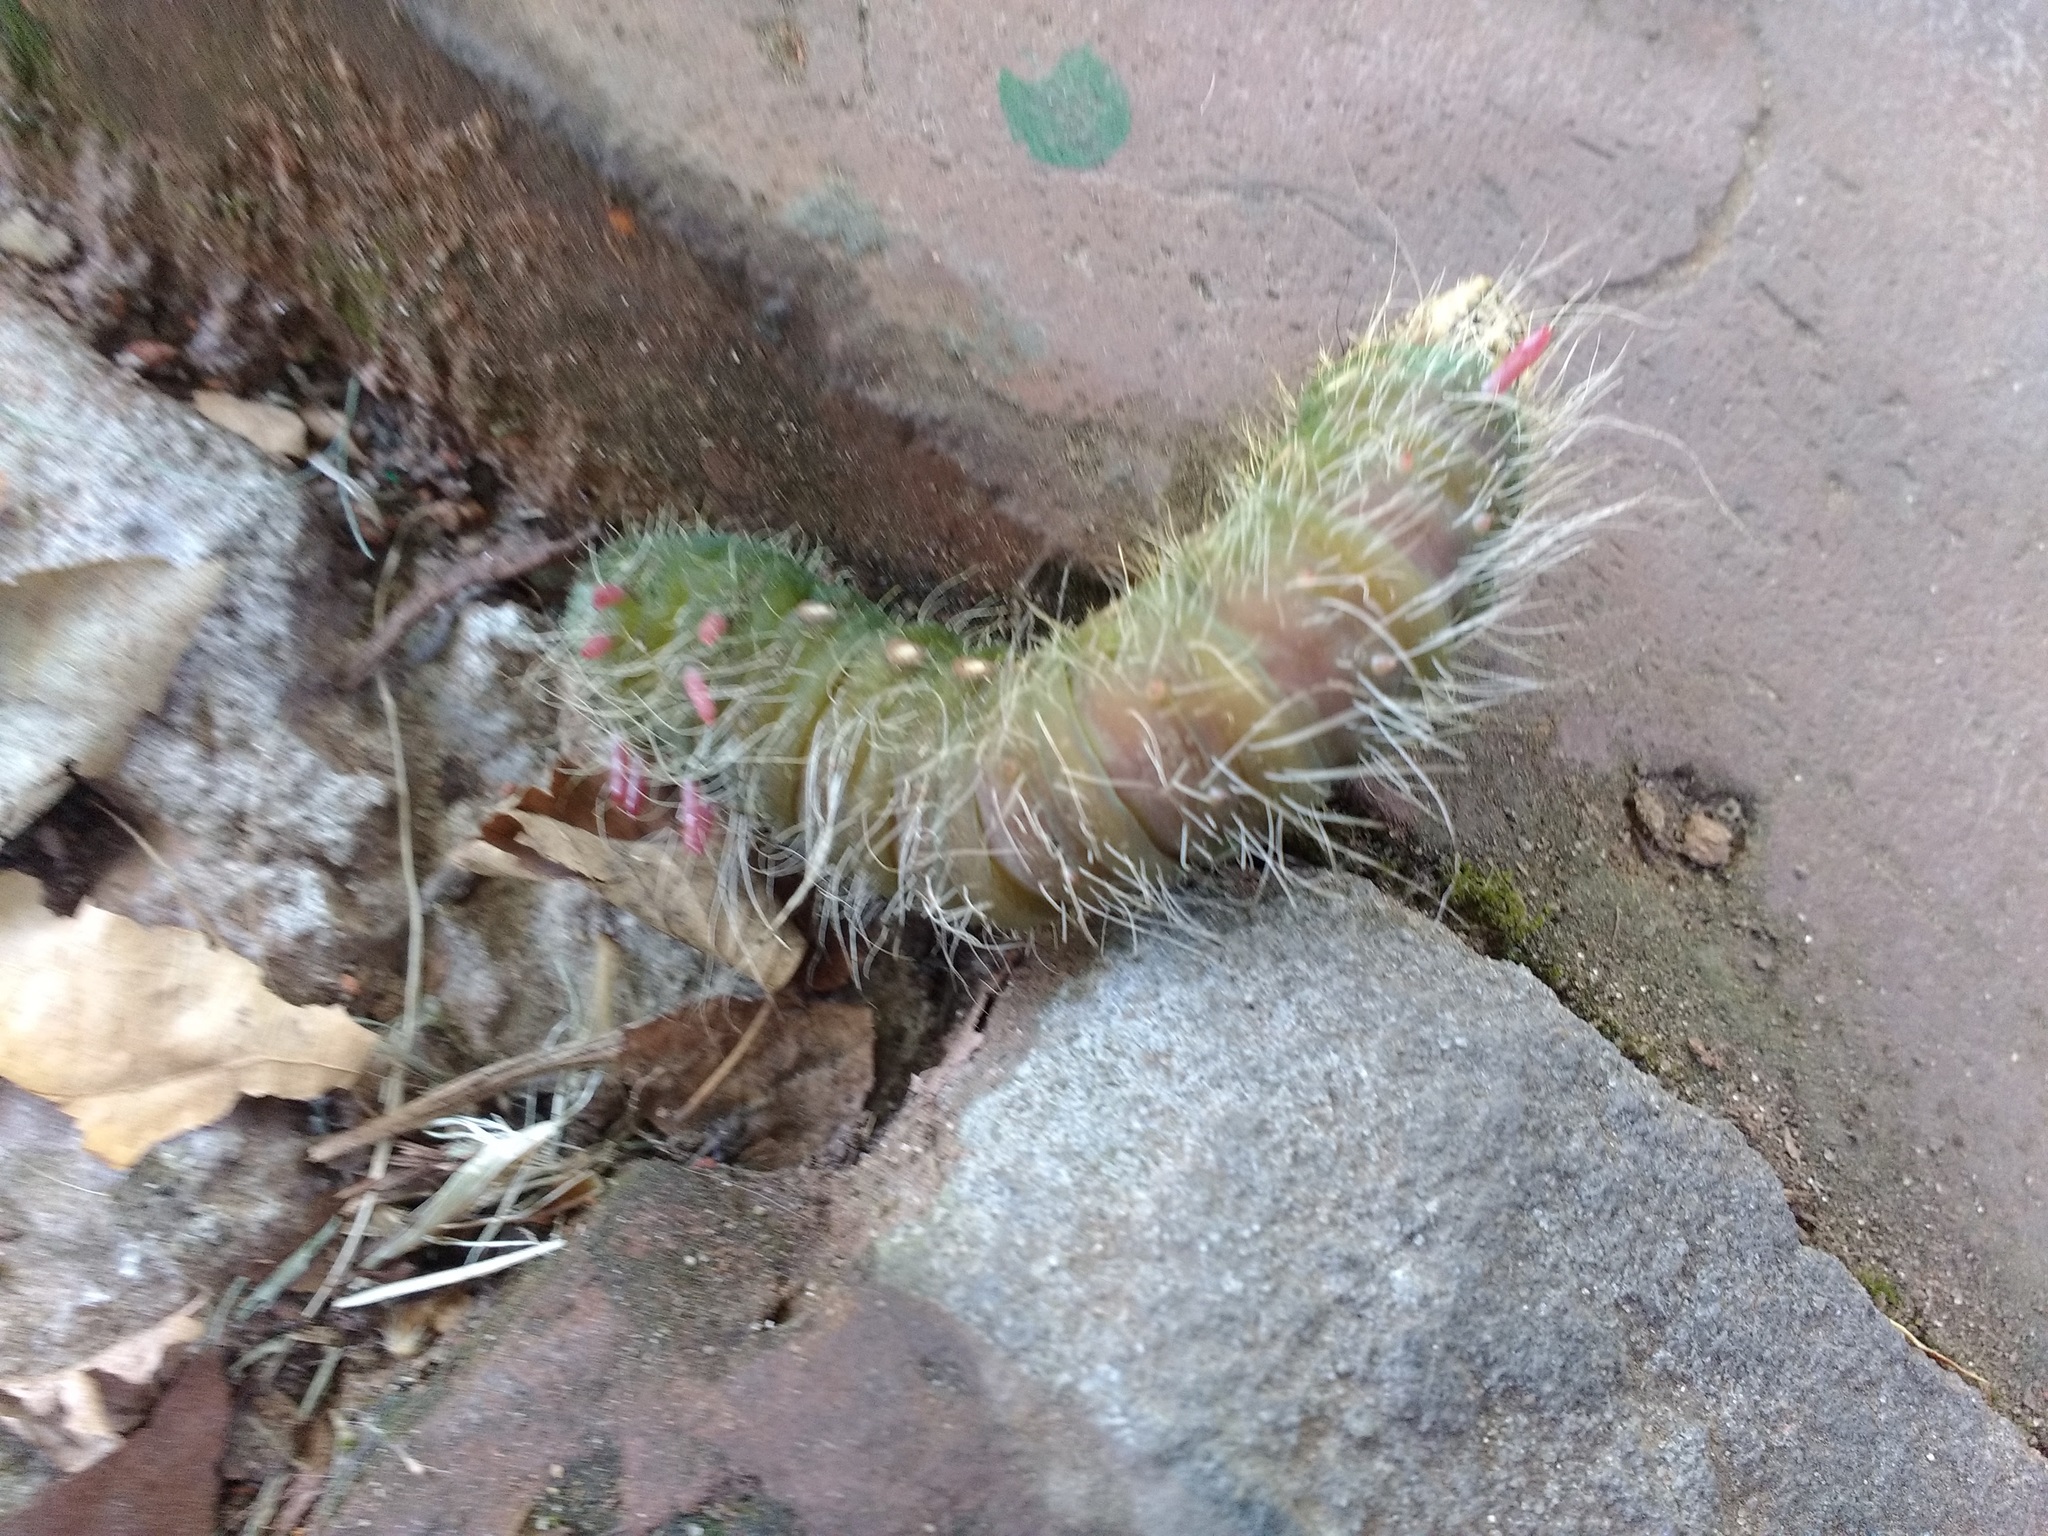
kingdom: Animalia
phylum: Arthropoda
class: Insecta
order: Lepidoptera
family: Saturniidae
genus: Eacles
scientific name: Eacles imperialis
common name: Imperial moth
